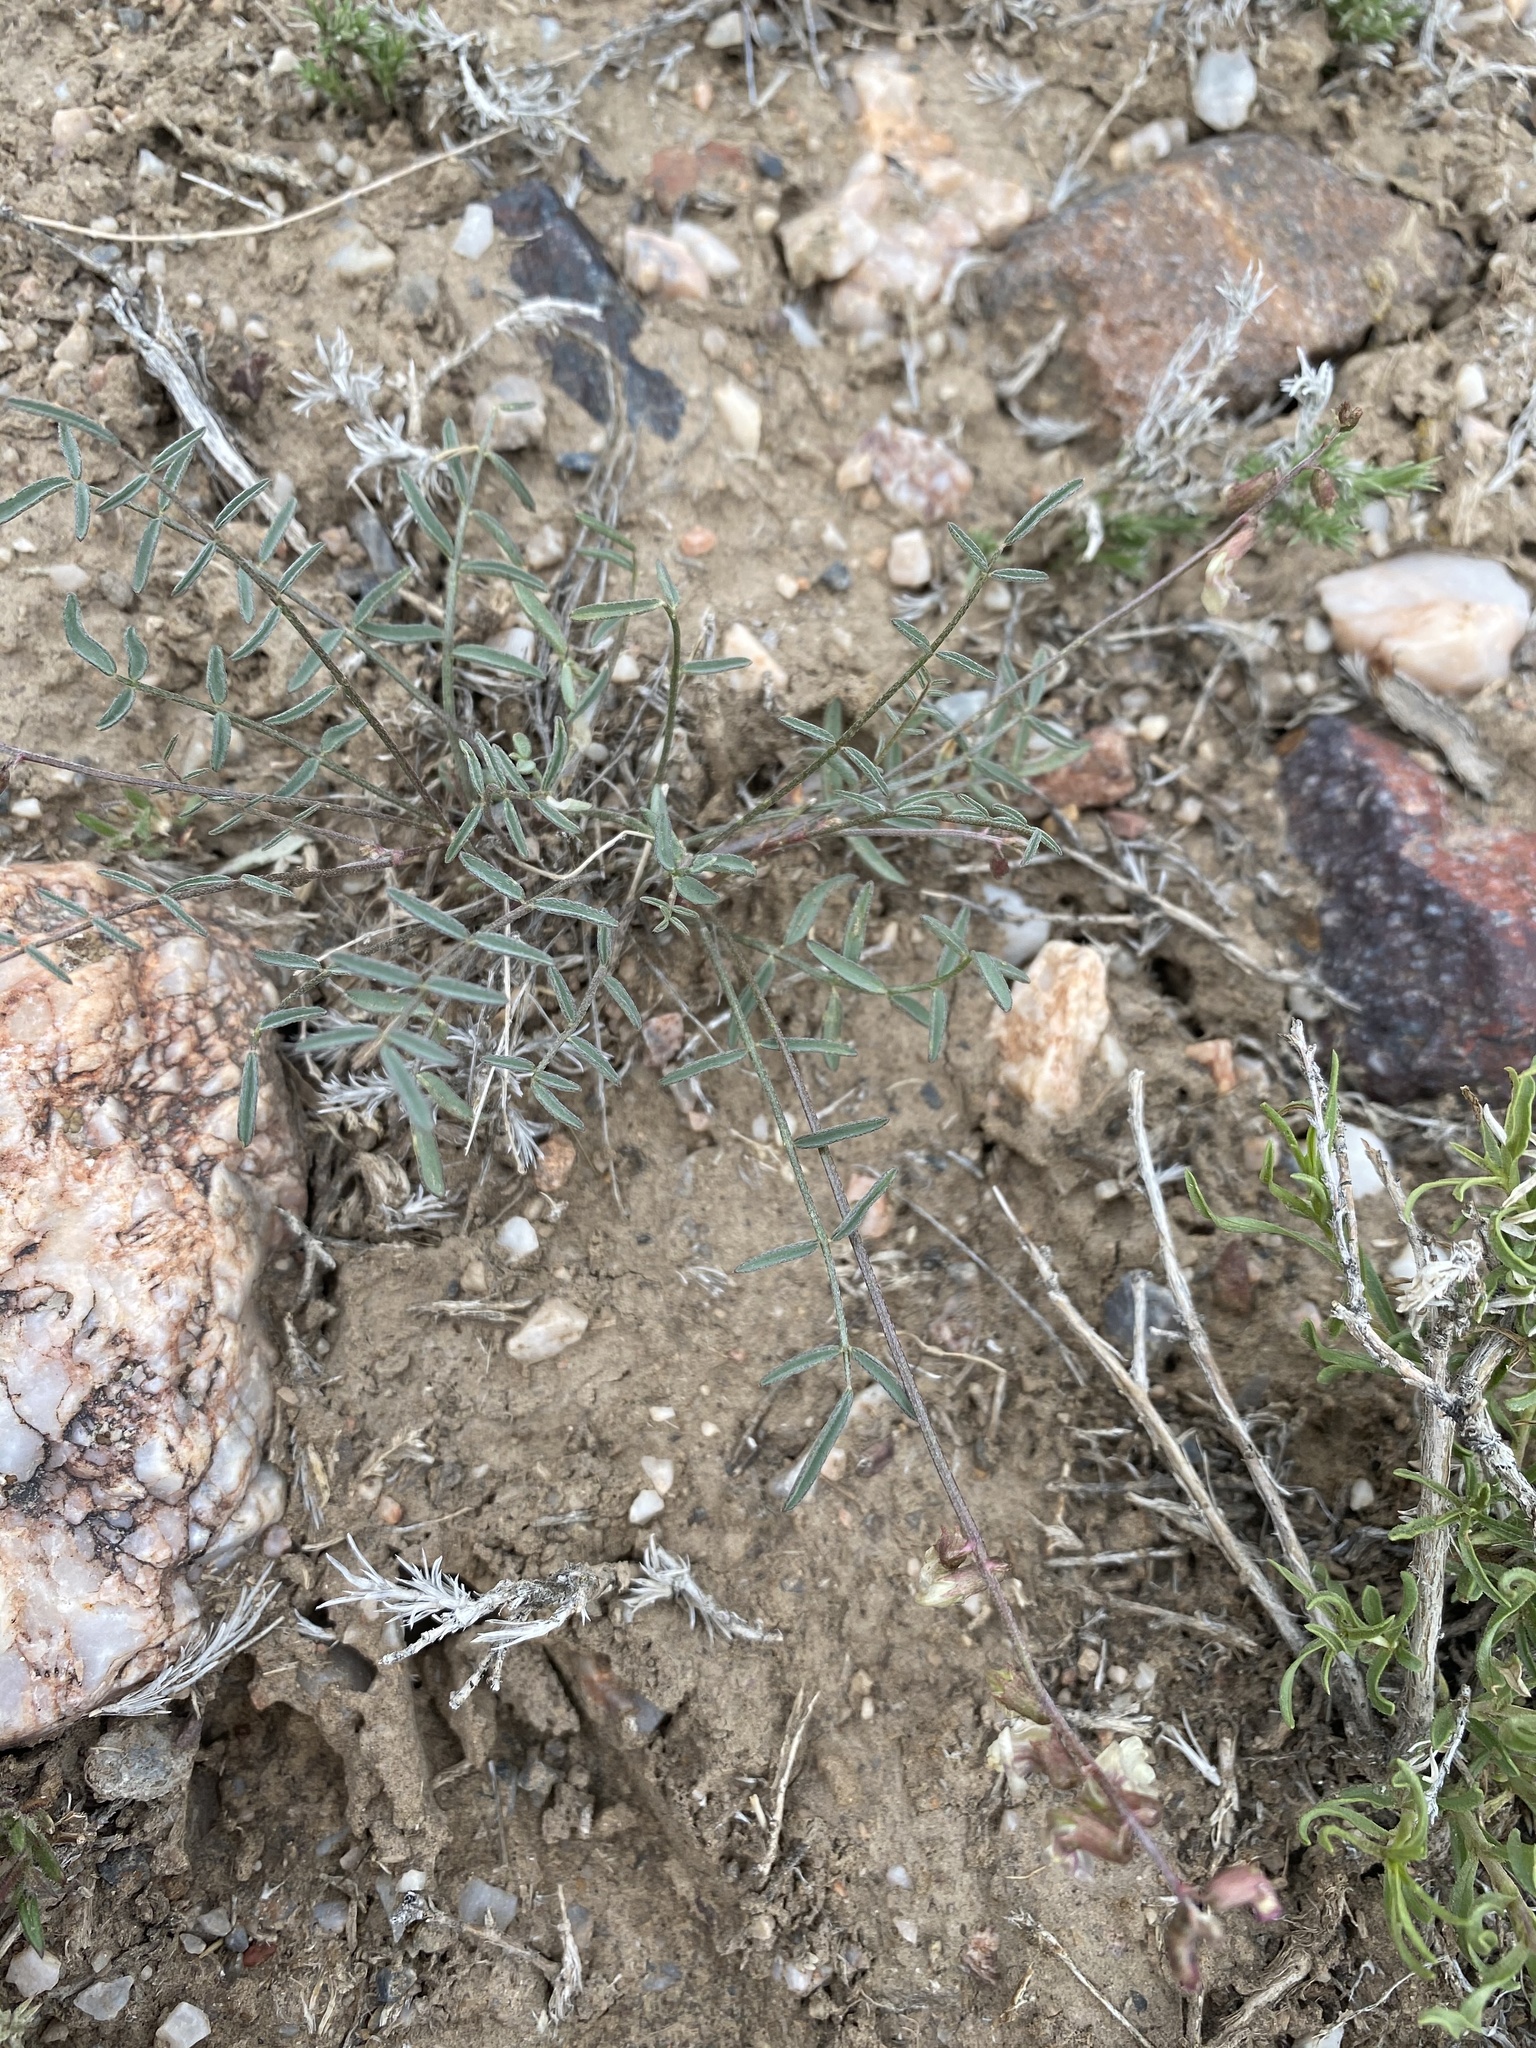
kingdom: Plantae
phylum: Tracheophyta
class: Magnoliopsida
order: Fabales
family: Fabaceae
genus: Astragalus
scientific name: Astragalus atratus
